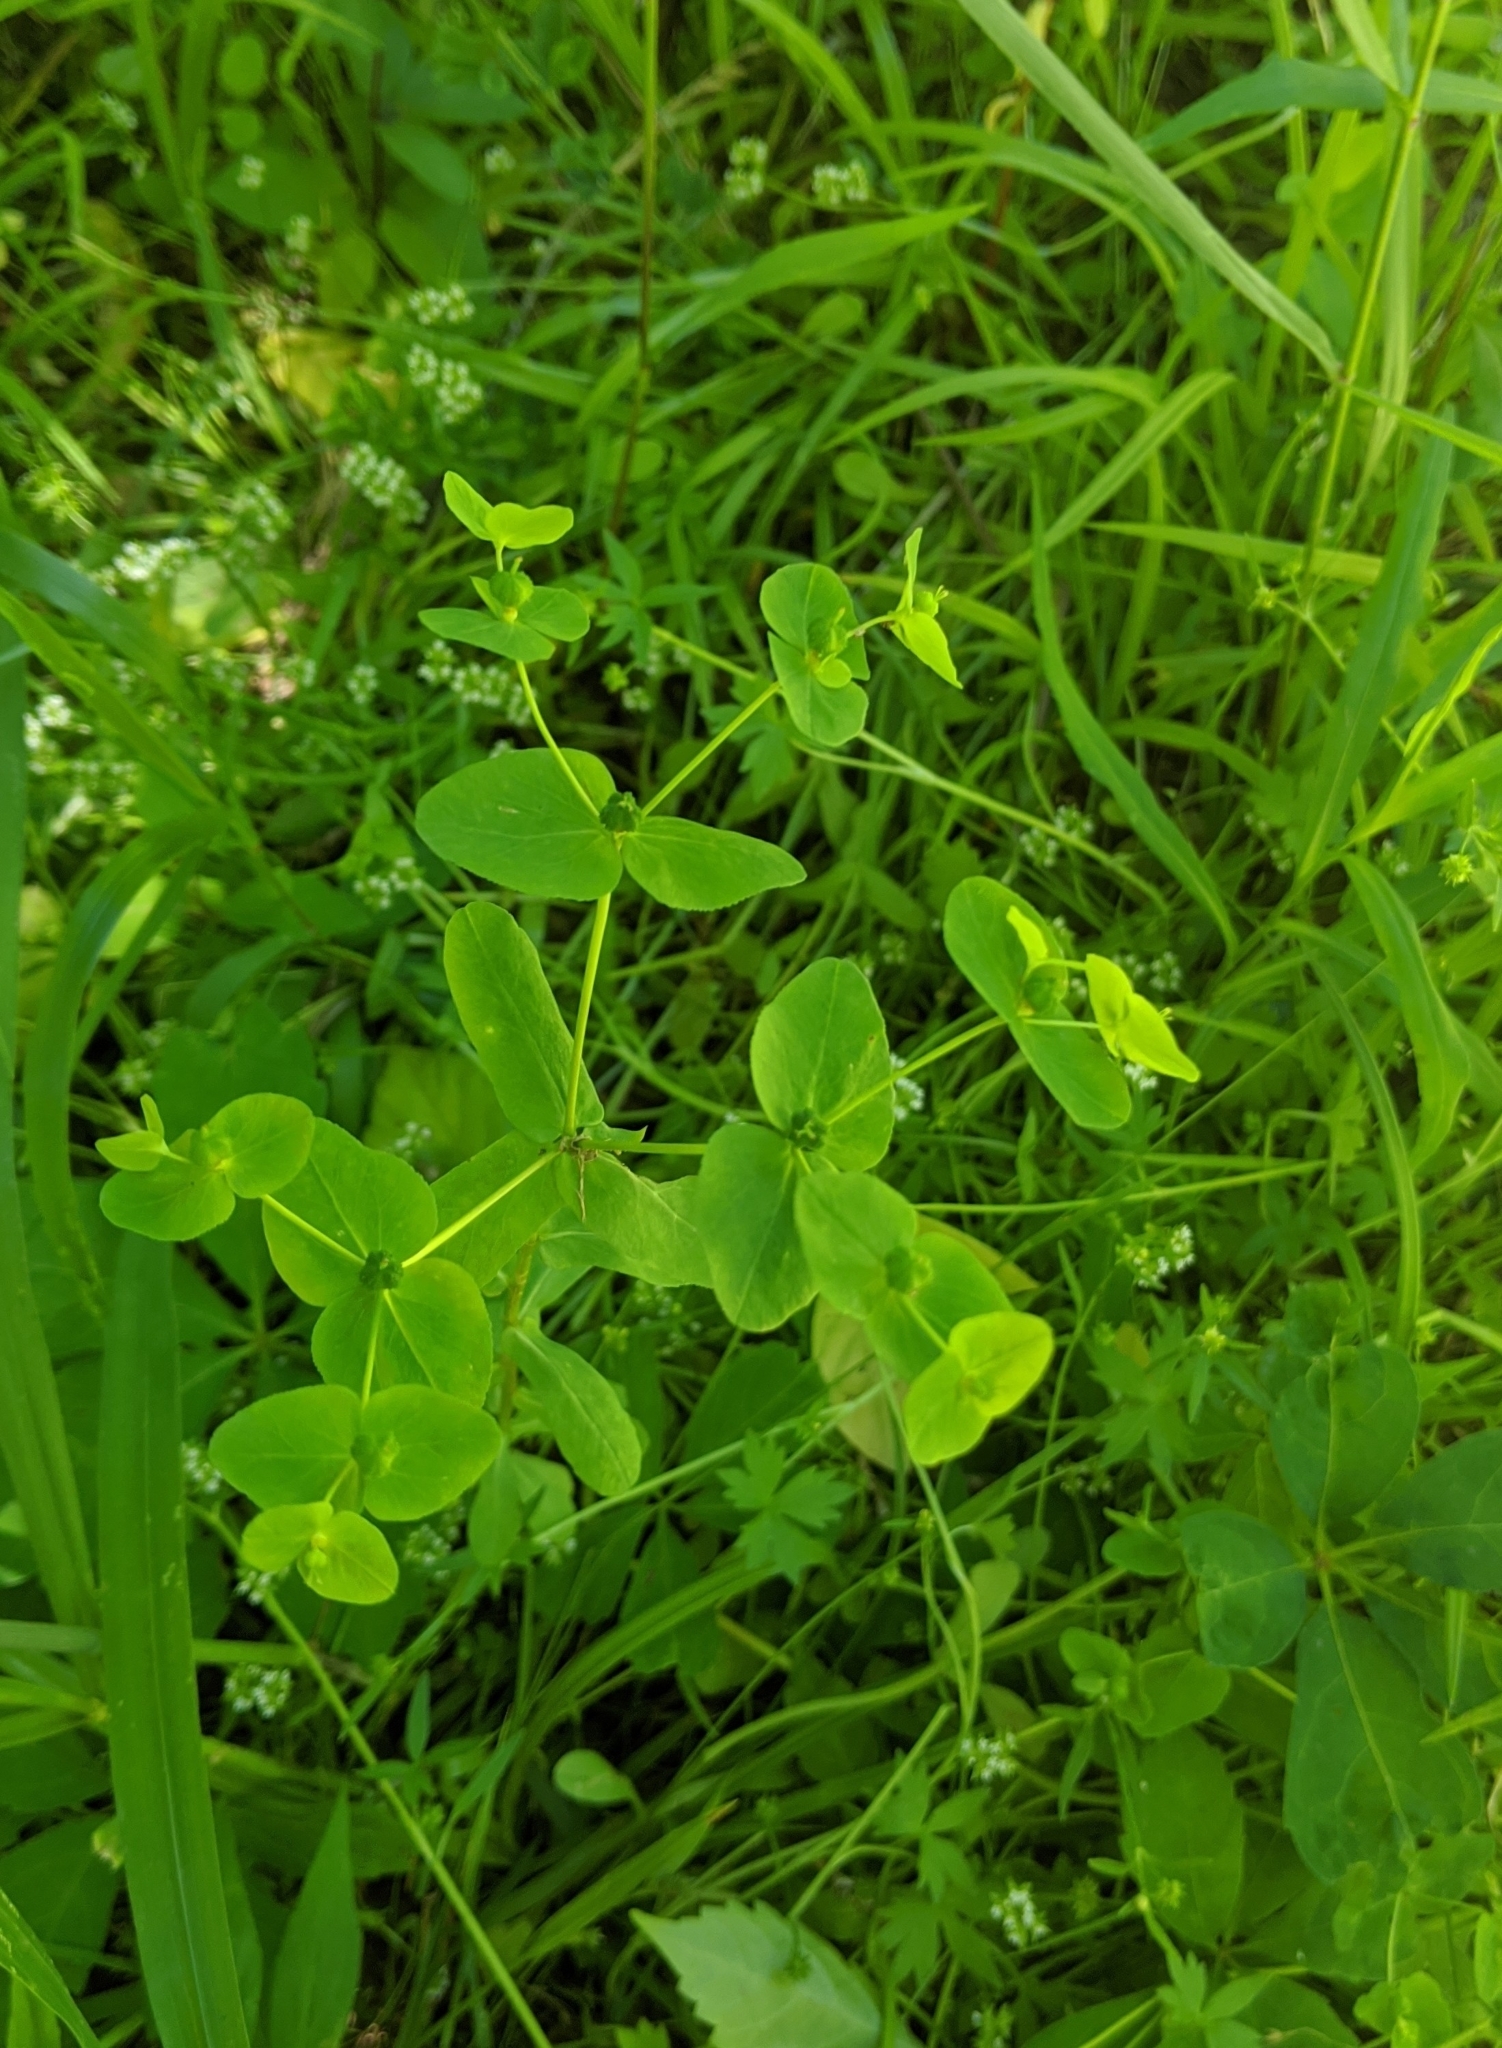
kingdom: Plantae
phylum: Tracheophyta
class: Magnoliopsida
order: Malpighiales
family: Euphorbiaceae
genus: Euphorbia
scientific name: Euphorbia spathulata
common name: Blunt spurge
